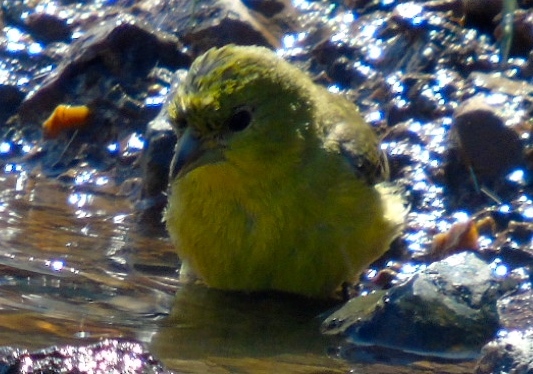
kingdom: Animalia
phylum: Chordata
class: Aves
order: Passeriformes
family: Fringillidae
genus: Spinus
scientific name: Spinus psaltria
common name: Lesser goldfinch
